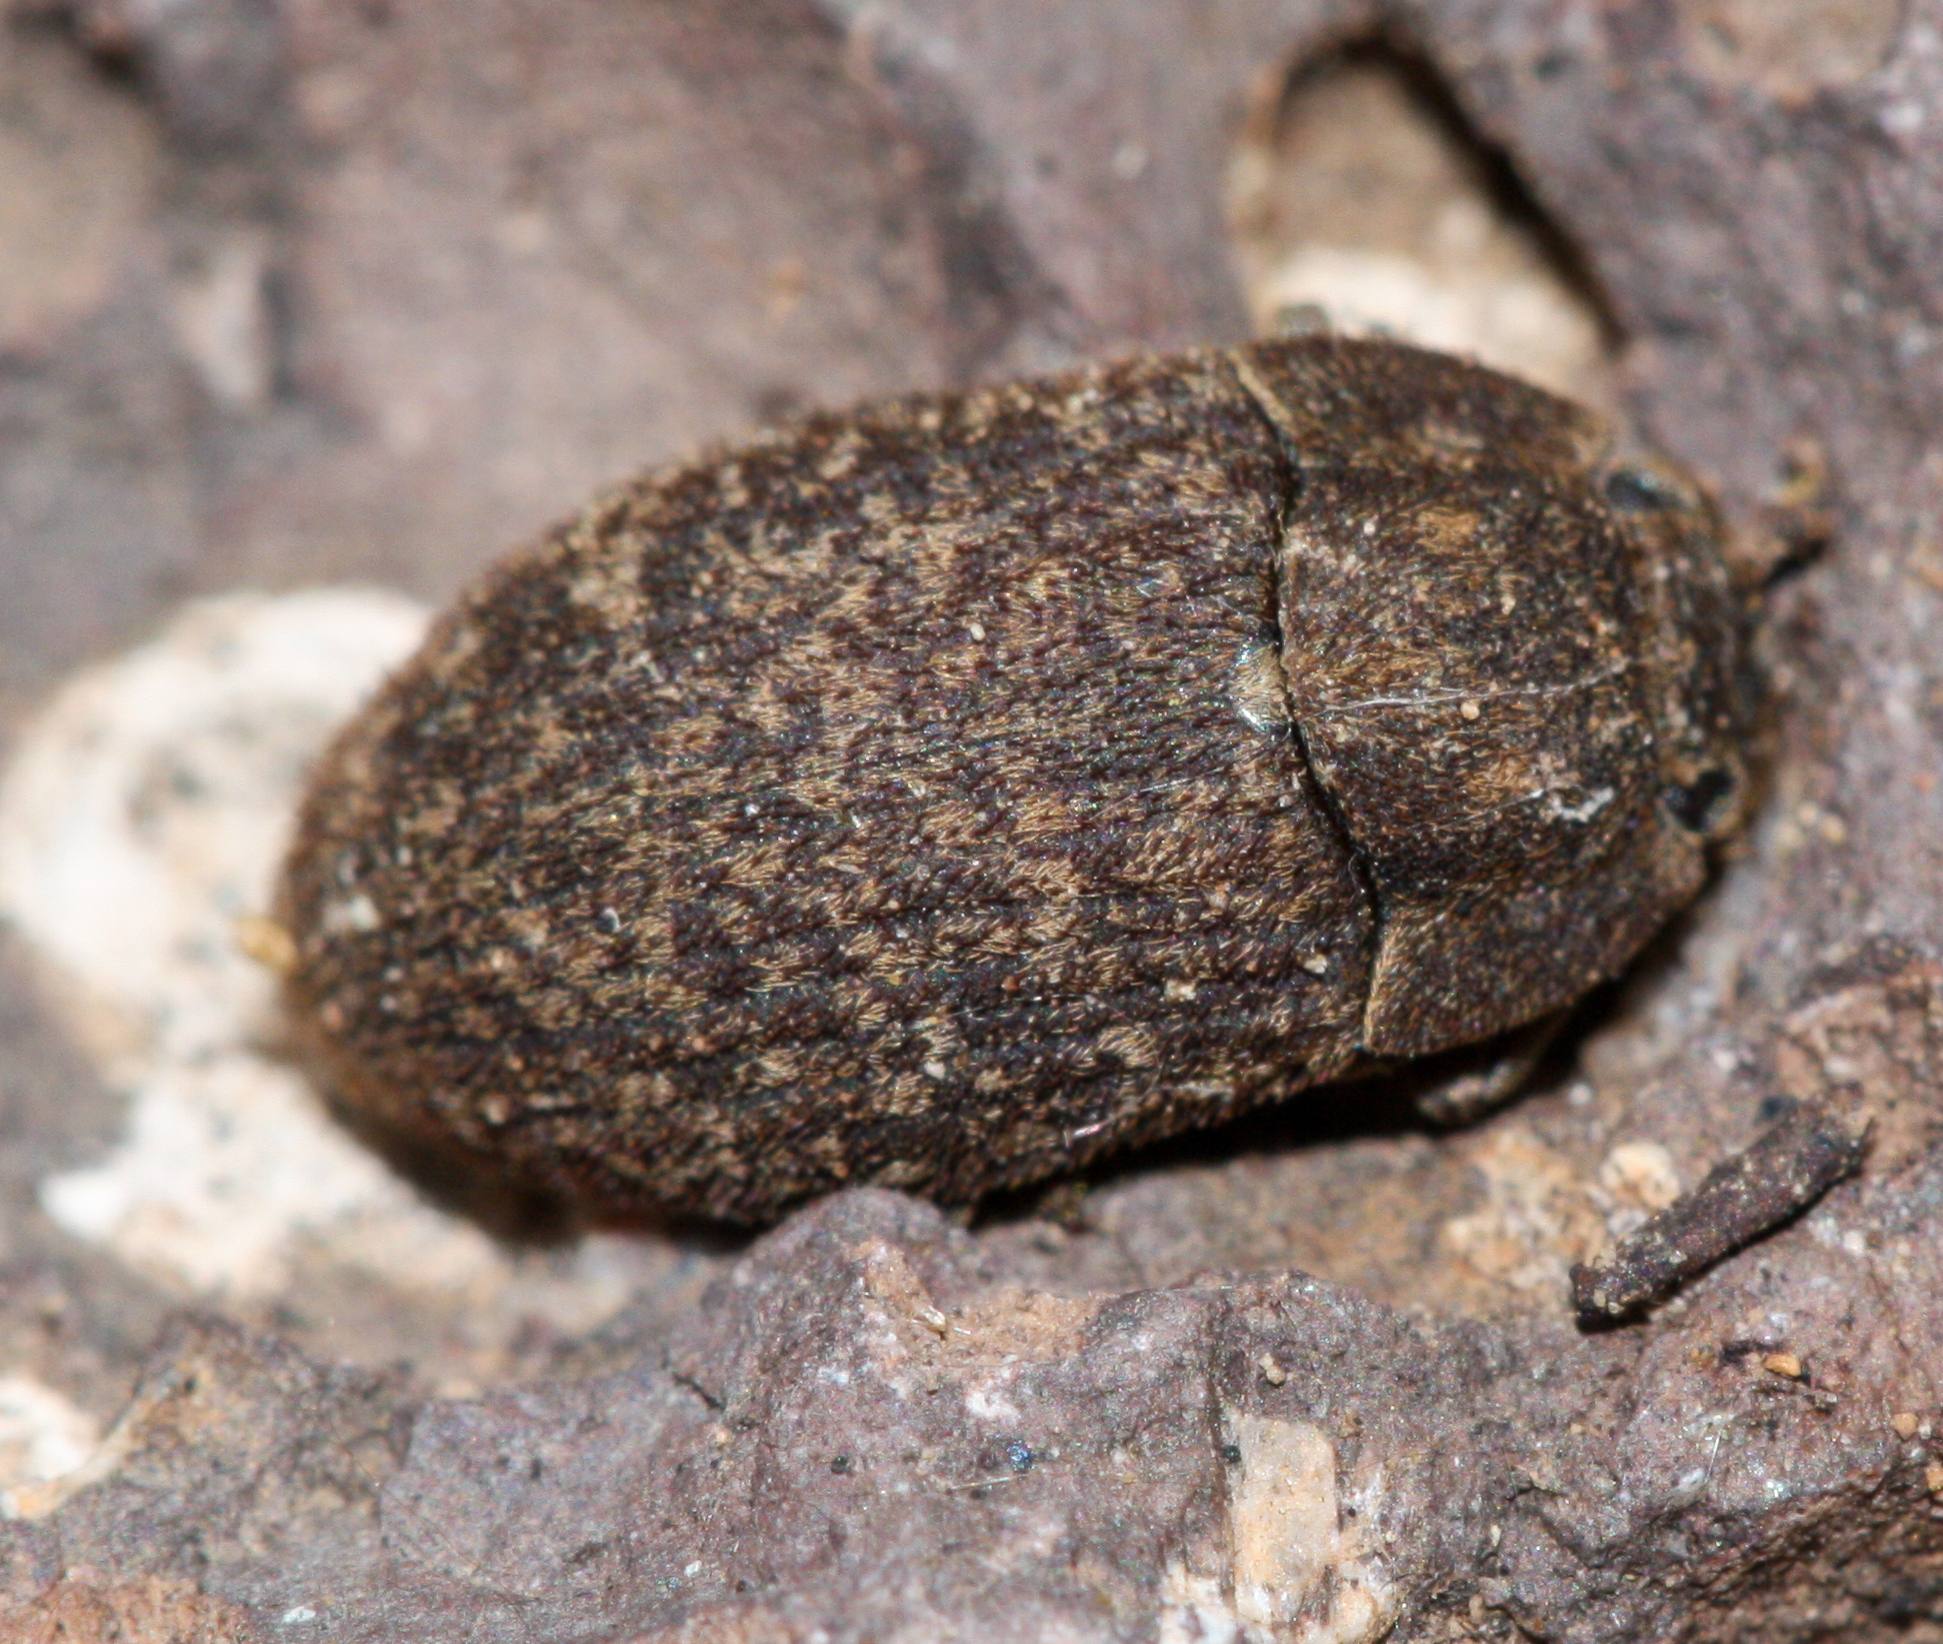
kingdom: Animalia
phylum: Arthropoda
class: Insecta
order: Coleoptera
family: Tenebrionidae
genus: Trichoton
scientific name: Trichoton sordidum
